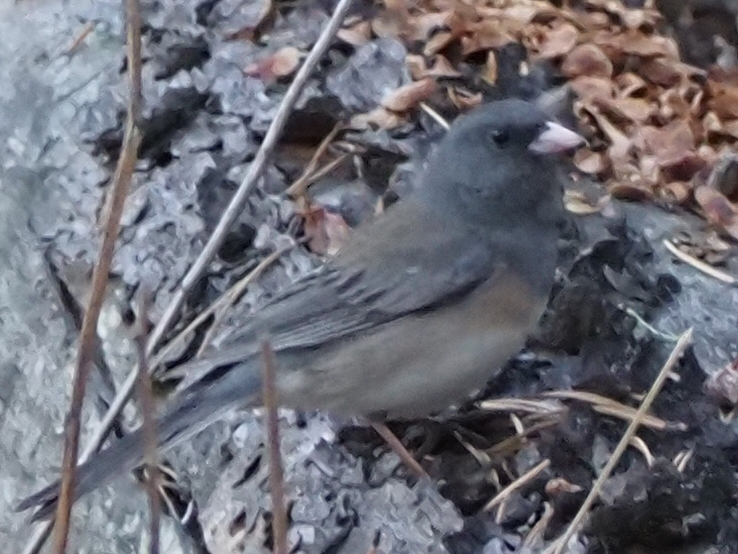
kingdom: Animalia
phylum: Chordata
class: Aves
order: Passeriformes
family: Passerellidae
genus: Junco
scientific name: Junco hyemalis
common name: Dark-eyed junco
